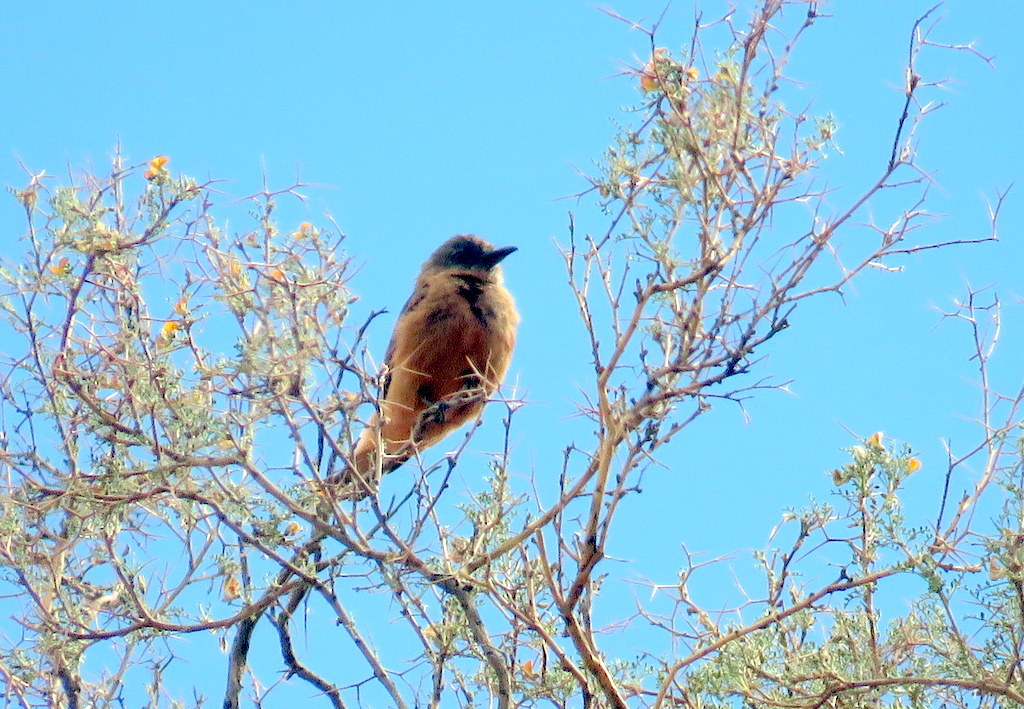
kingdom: Animalia
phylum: Chordata
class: Aves
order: Passeriformes
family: Tyrannidae
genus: Hirundinea
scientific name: Hirundinea ferruginea
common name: Cliff flycatcher
